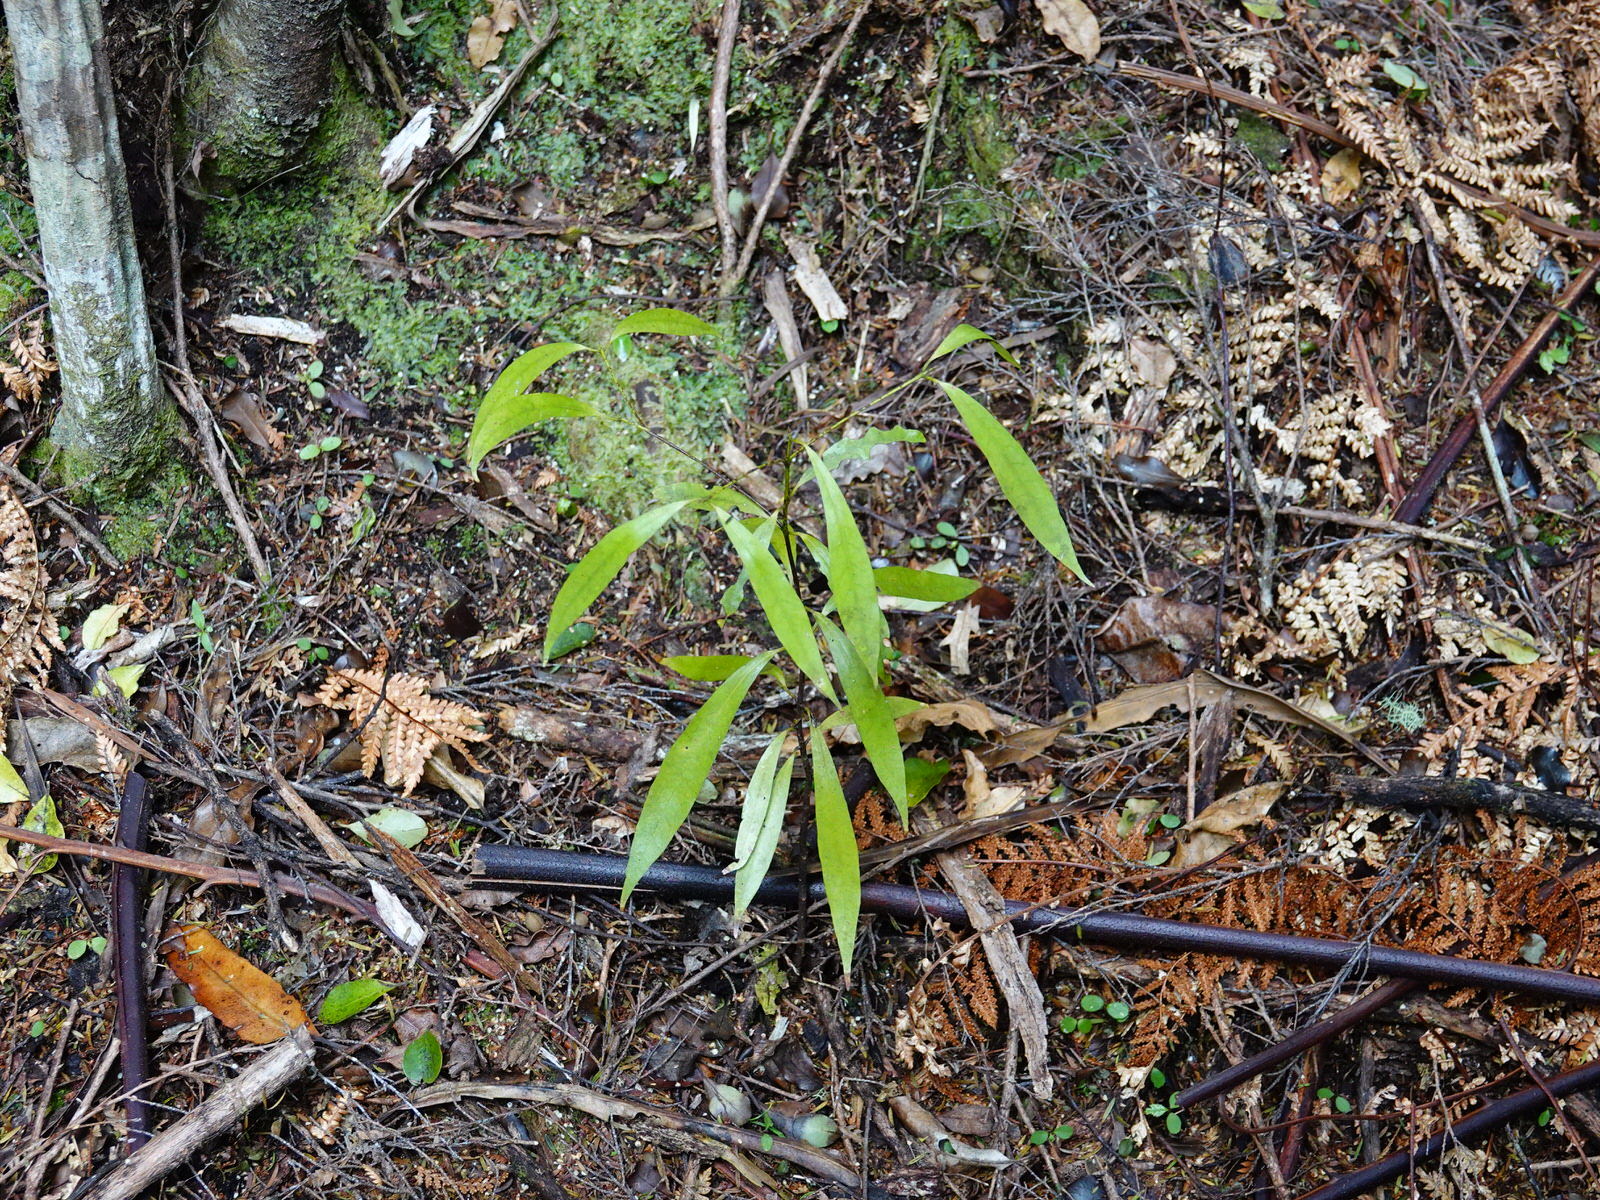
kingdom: Plantae
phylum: Tracheophyta
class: Magnoliopsida
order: Laurales
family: Lauraceae
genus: Beilschmiedia
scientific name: Beilschmiedia tawa
